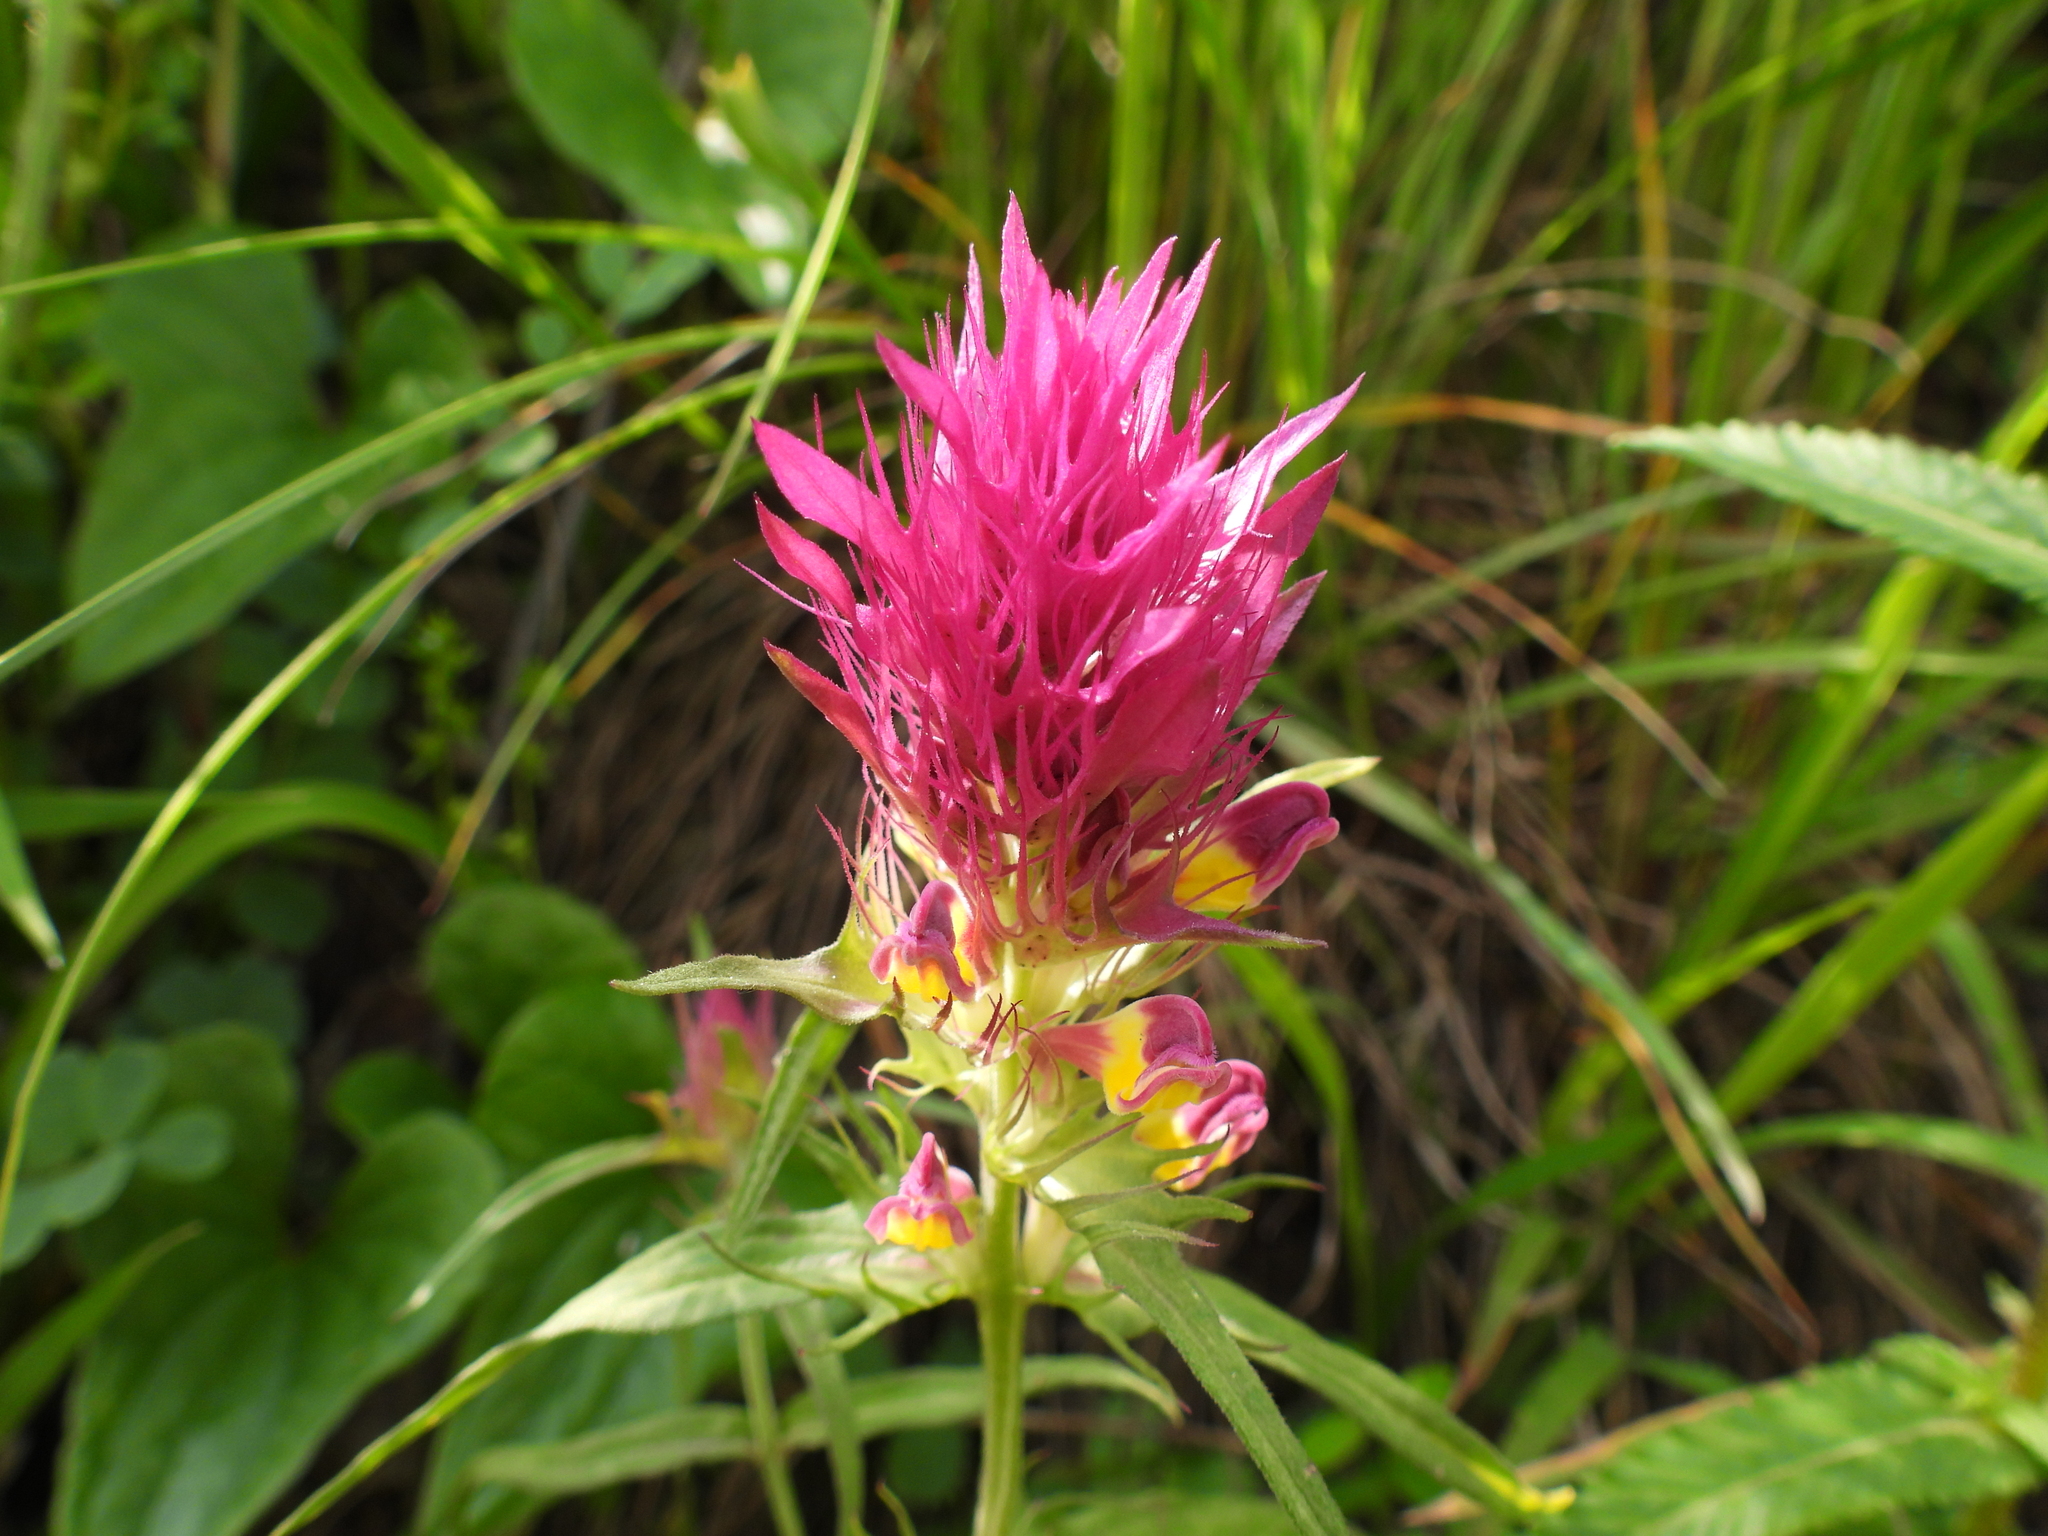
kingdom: Plantae
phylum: Tracheophyta
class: Magnoliopsida
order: Lamiales
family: Orobanchaceae
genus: Melampyrum
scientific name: Melampyrum arvense
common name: Field cow-wheat
